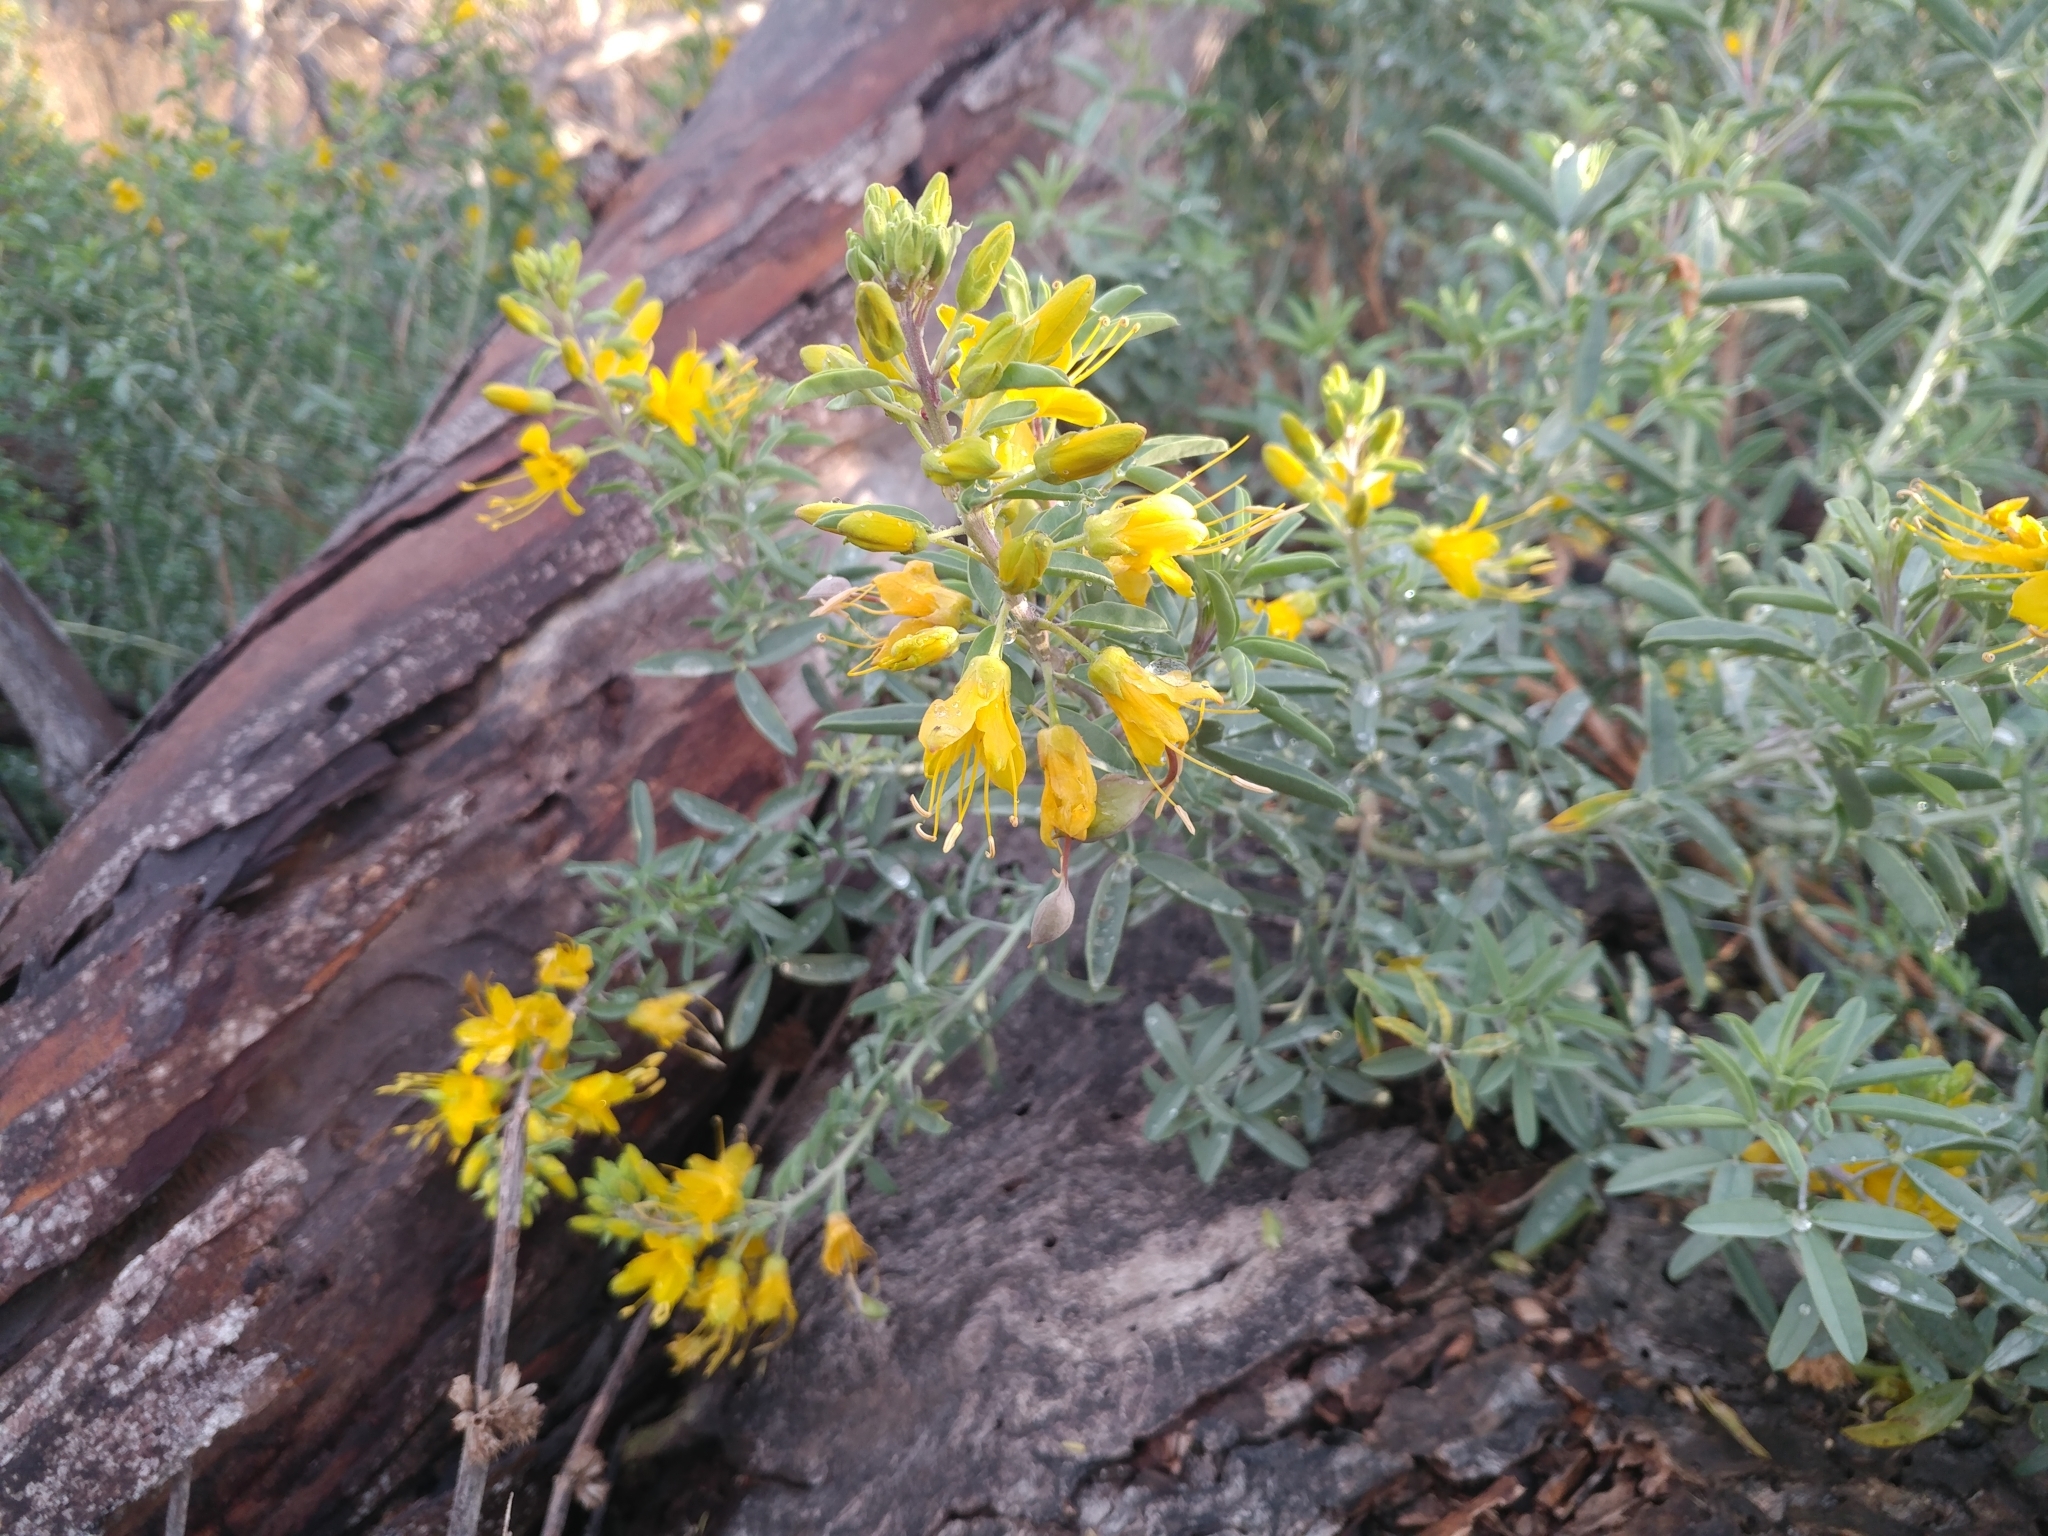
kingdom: Plantae
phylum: Tracheophyta
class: Magnoliopsida
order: Brassicales
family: Cleomaceae
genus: Cleomella
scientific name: Cleomella arborea
